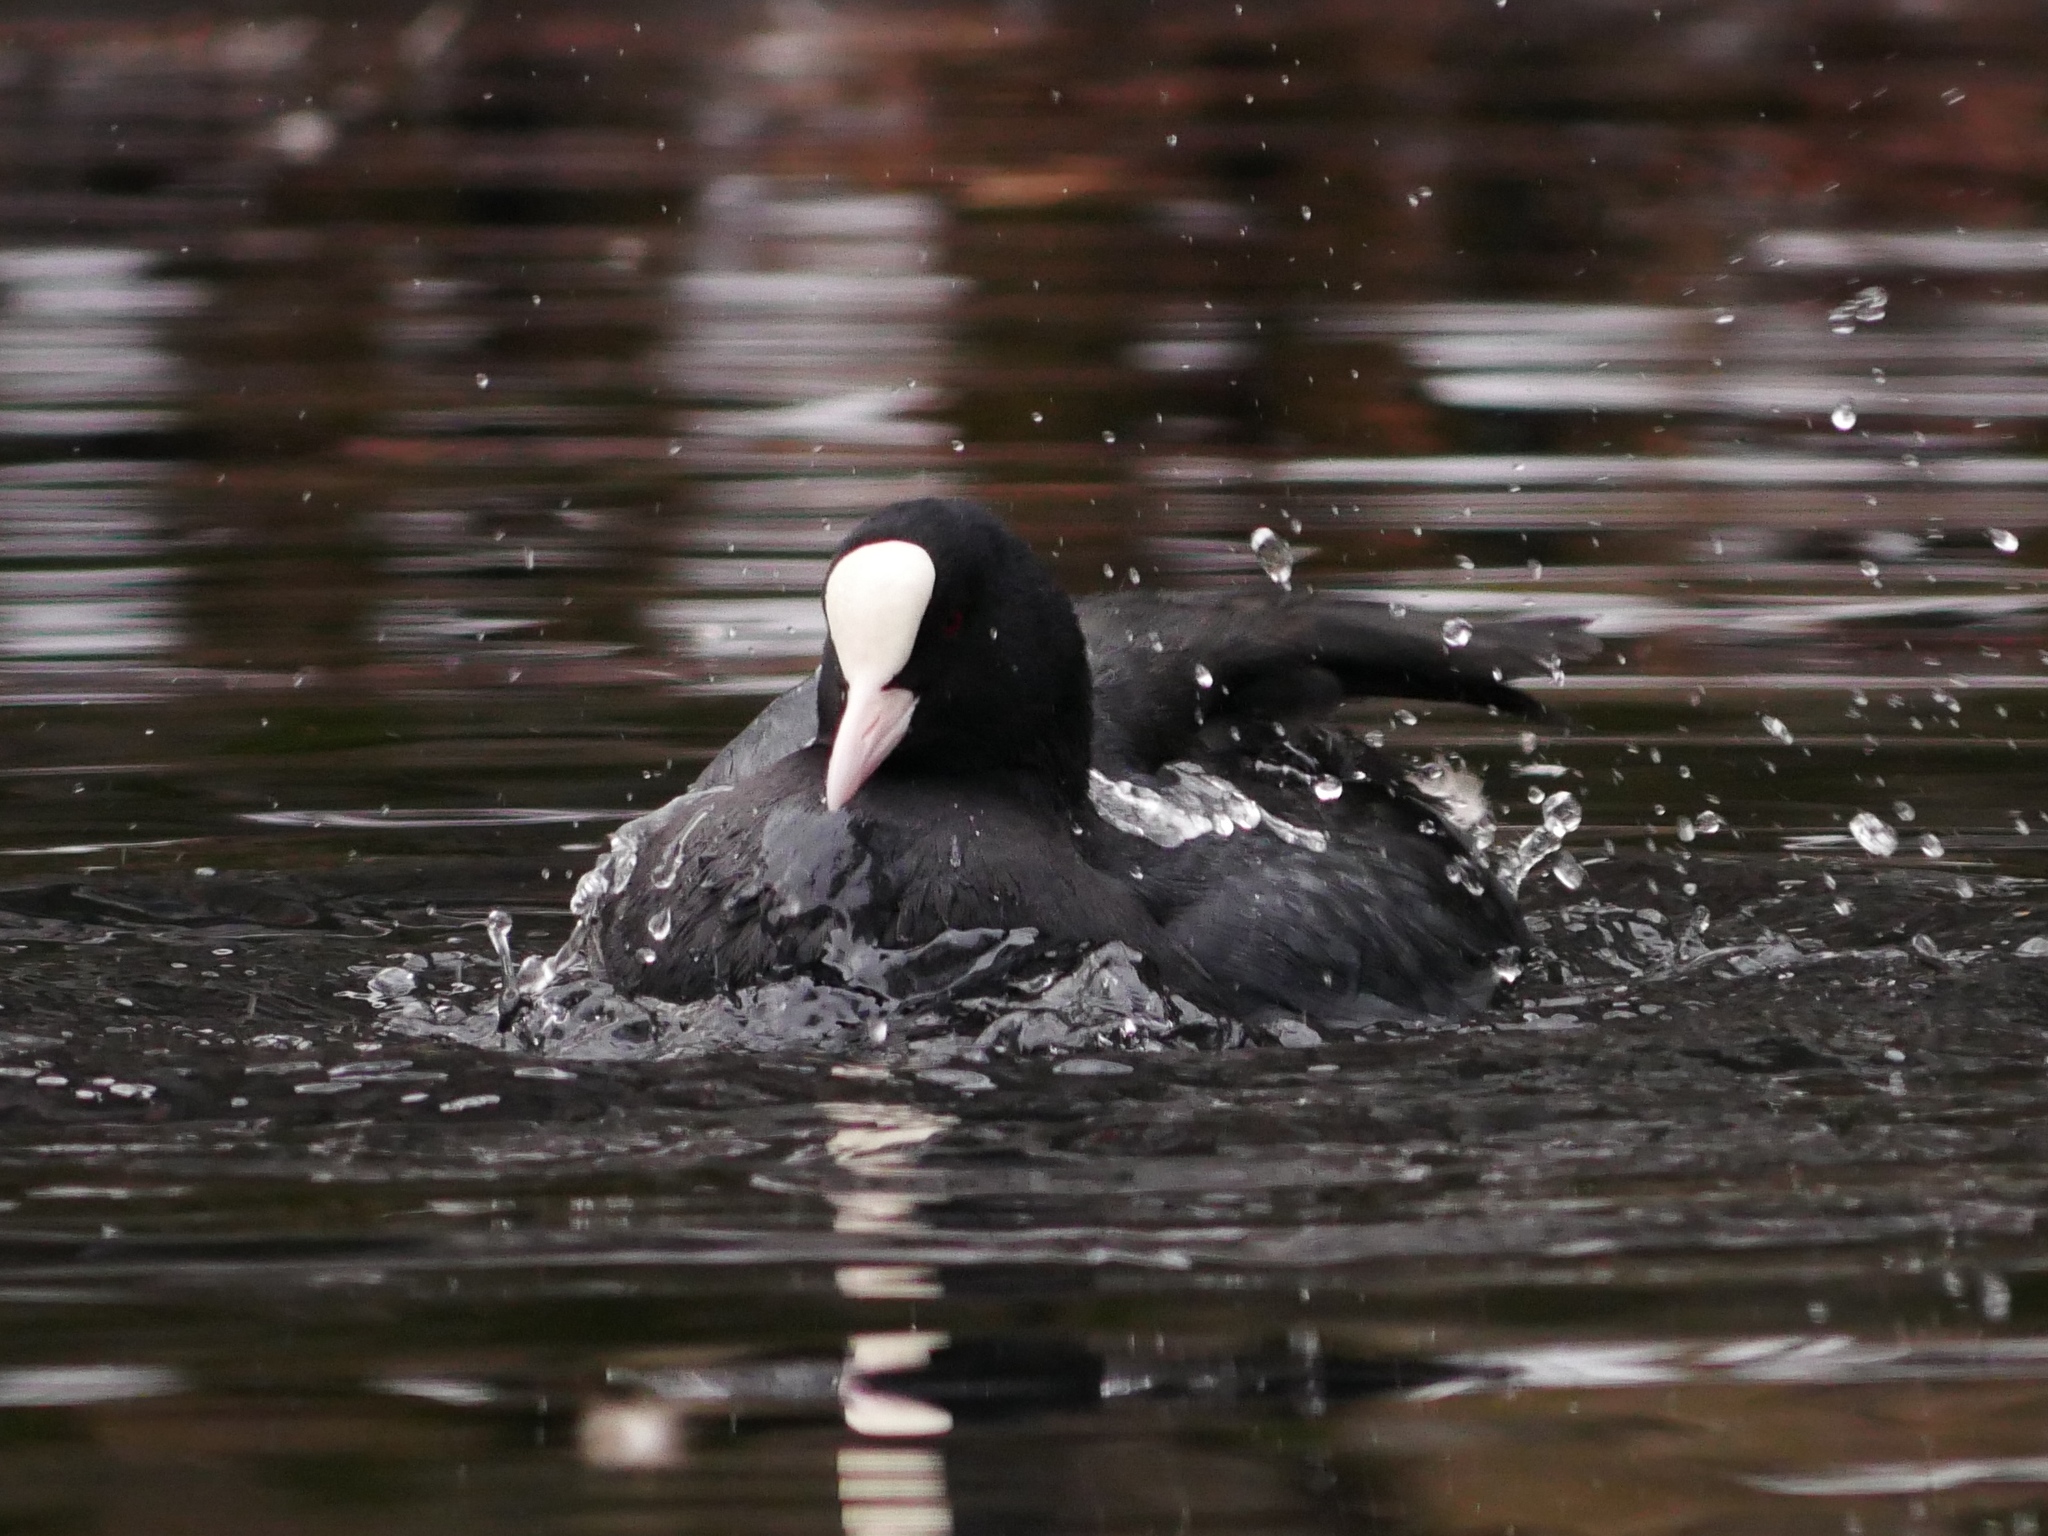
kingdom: Animalia
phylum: Chordata
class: Aves
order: Gruiformes
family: Rallidae
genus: Fulica
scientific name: Fulica atra
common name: Eurasian coot
